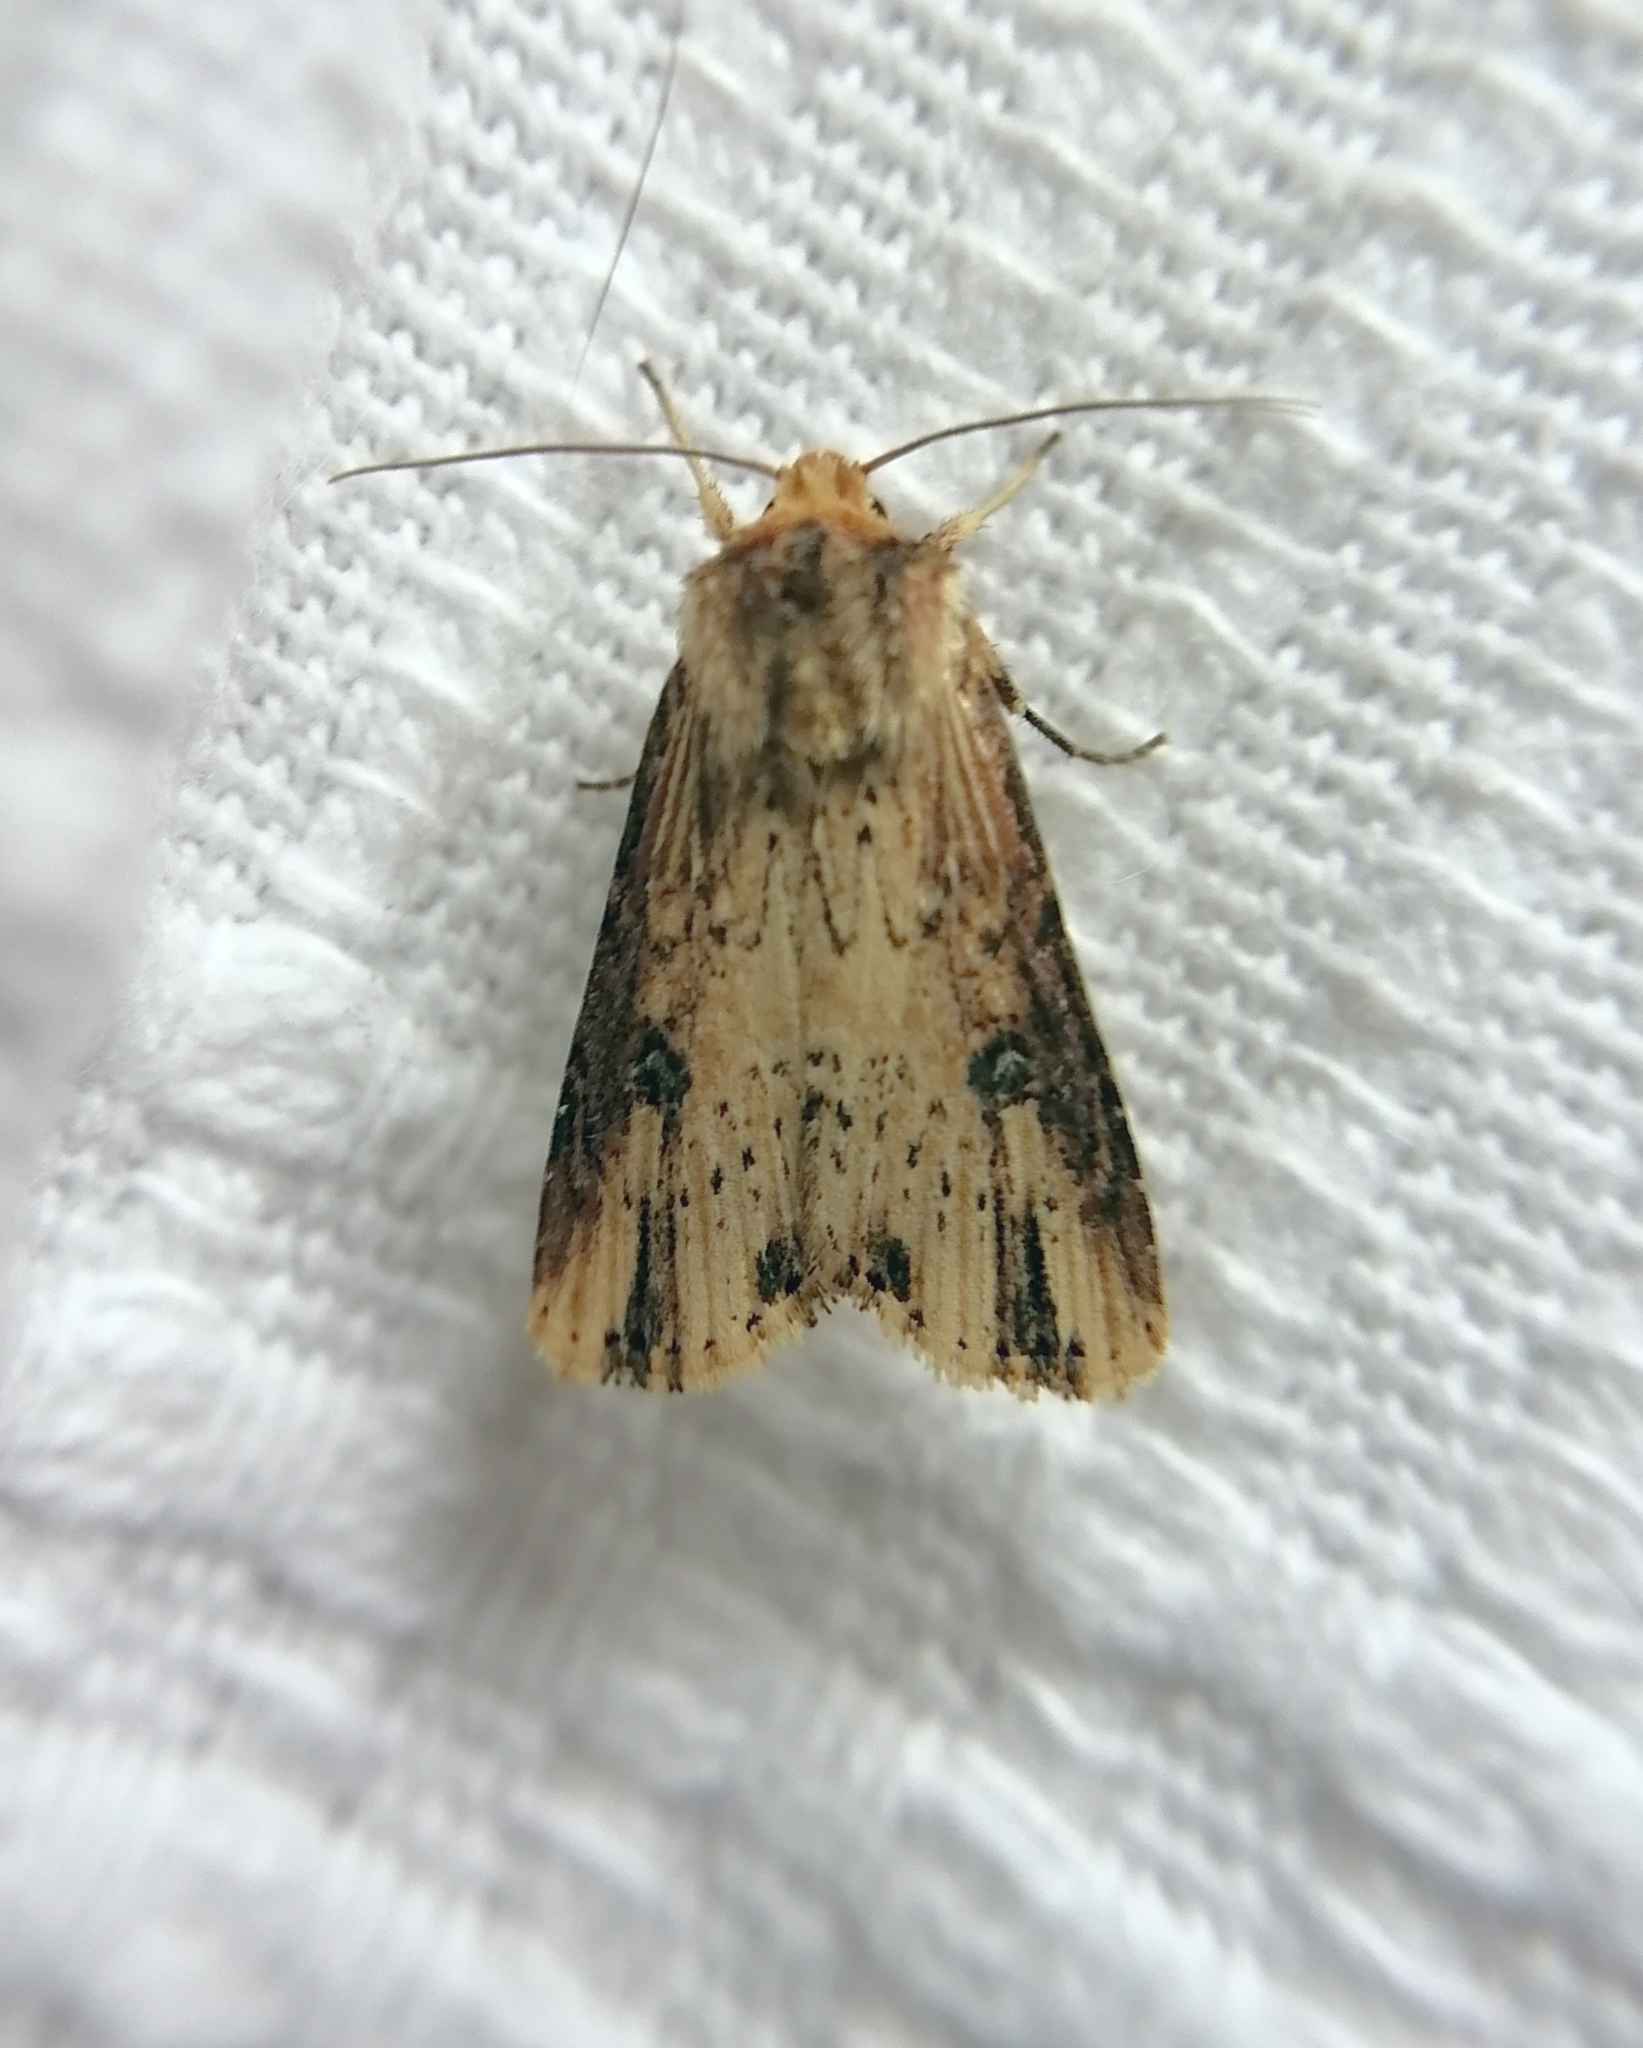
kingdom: Animalia
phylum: Arthropoda
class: Insecta
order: Lepidoptera
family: Noctuidae
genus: Axylia
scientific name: Axylia putris
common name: Flame
